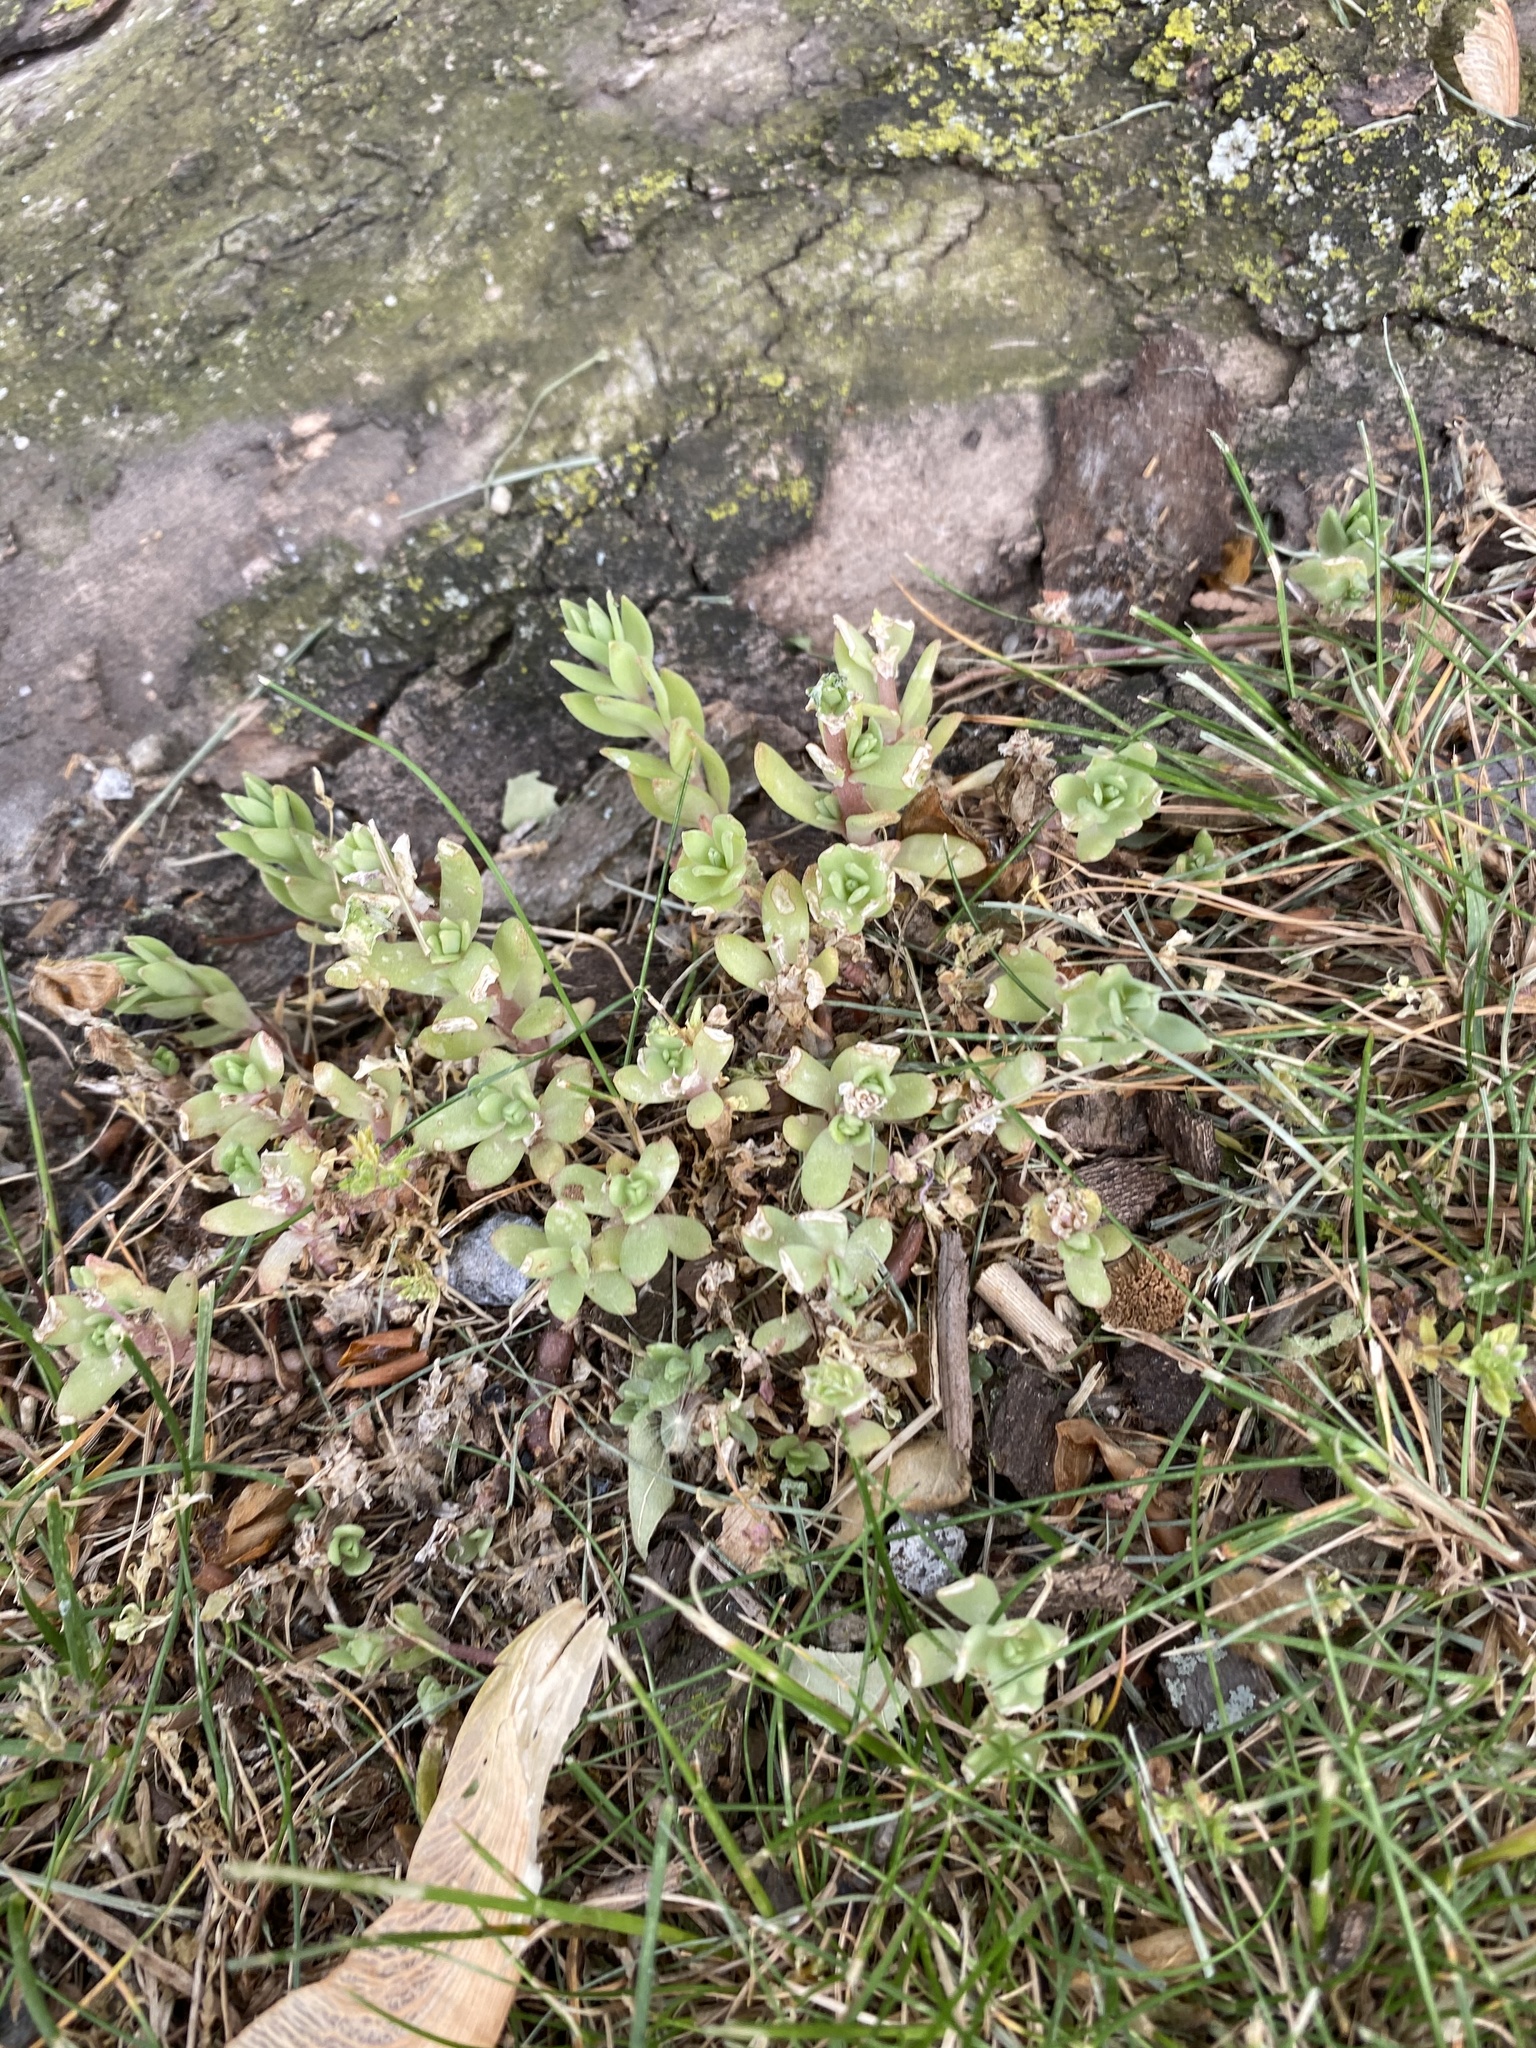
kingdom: Plantae
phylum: Tracheophyta
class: Magnoliopsida
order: Saxifragales
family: Crassulaceae
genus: Sedum
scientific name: Sedum sarmentosum
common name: Stringy stonecrop
